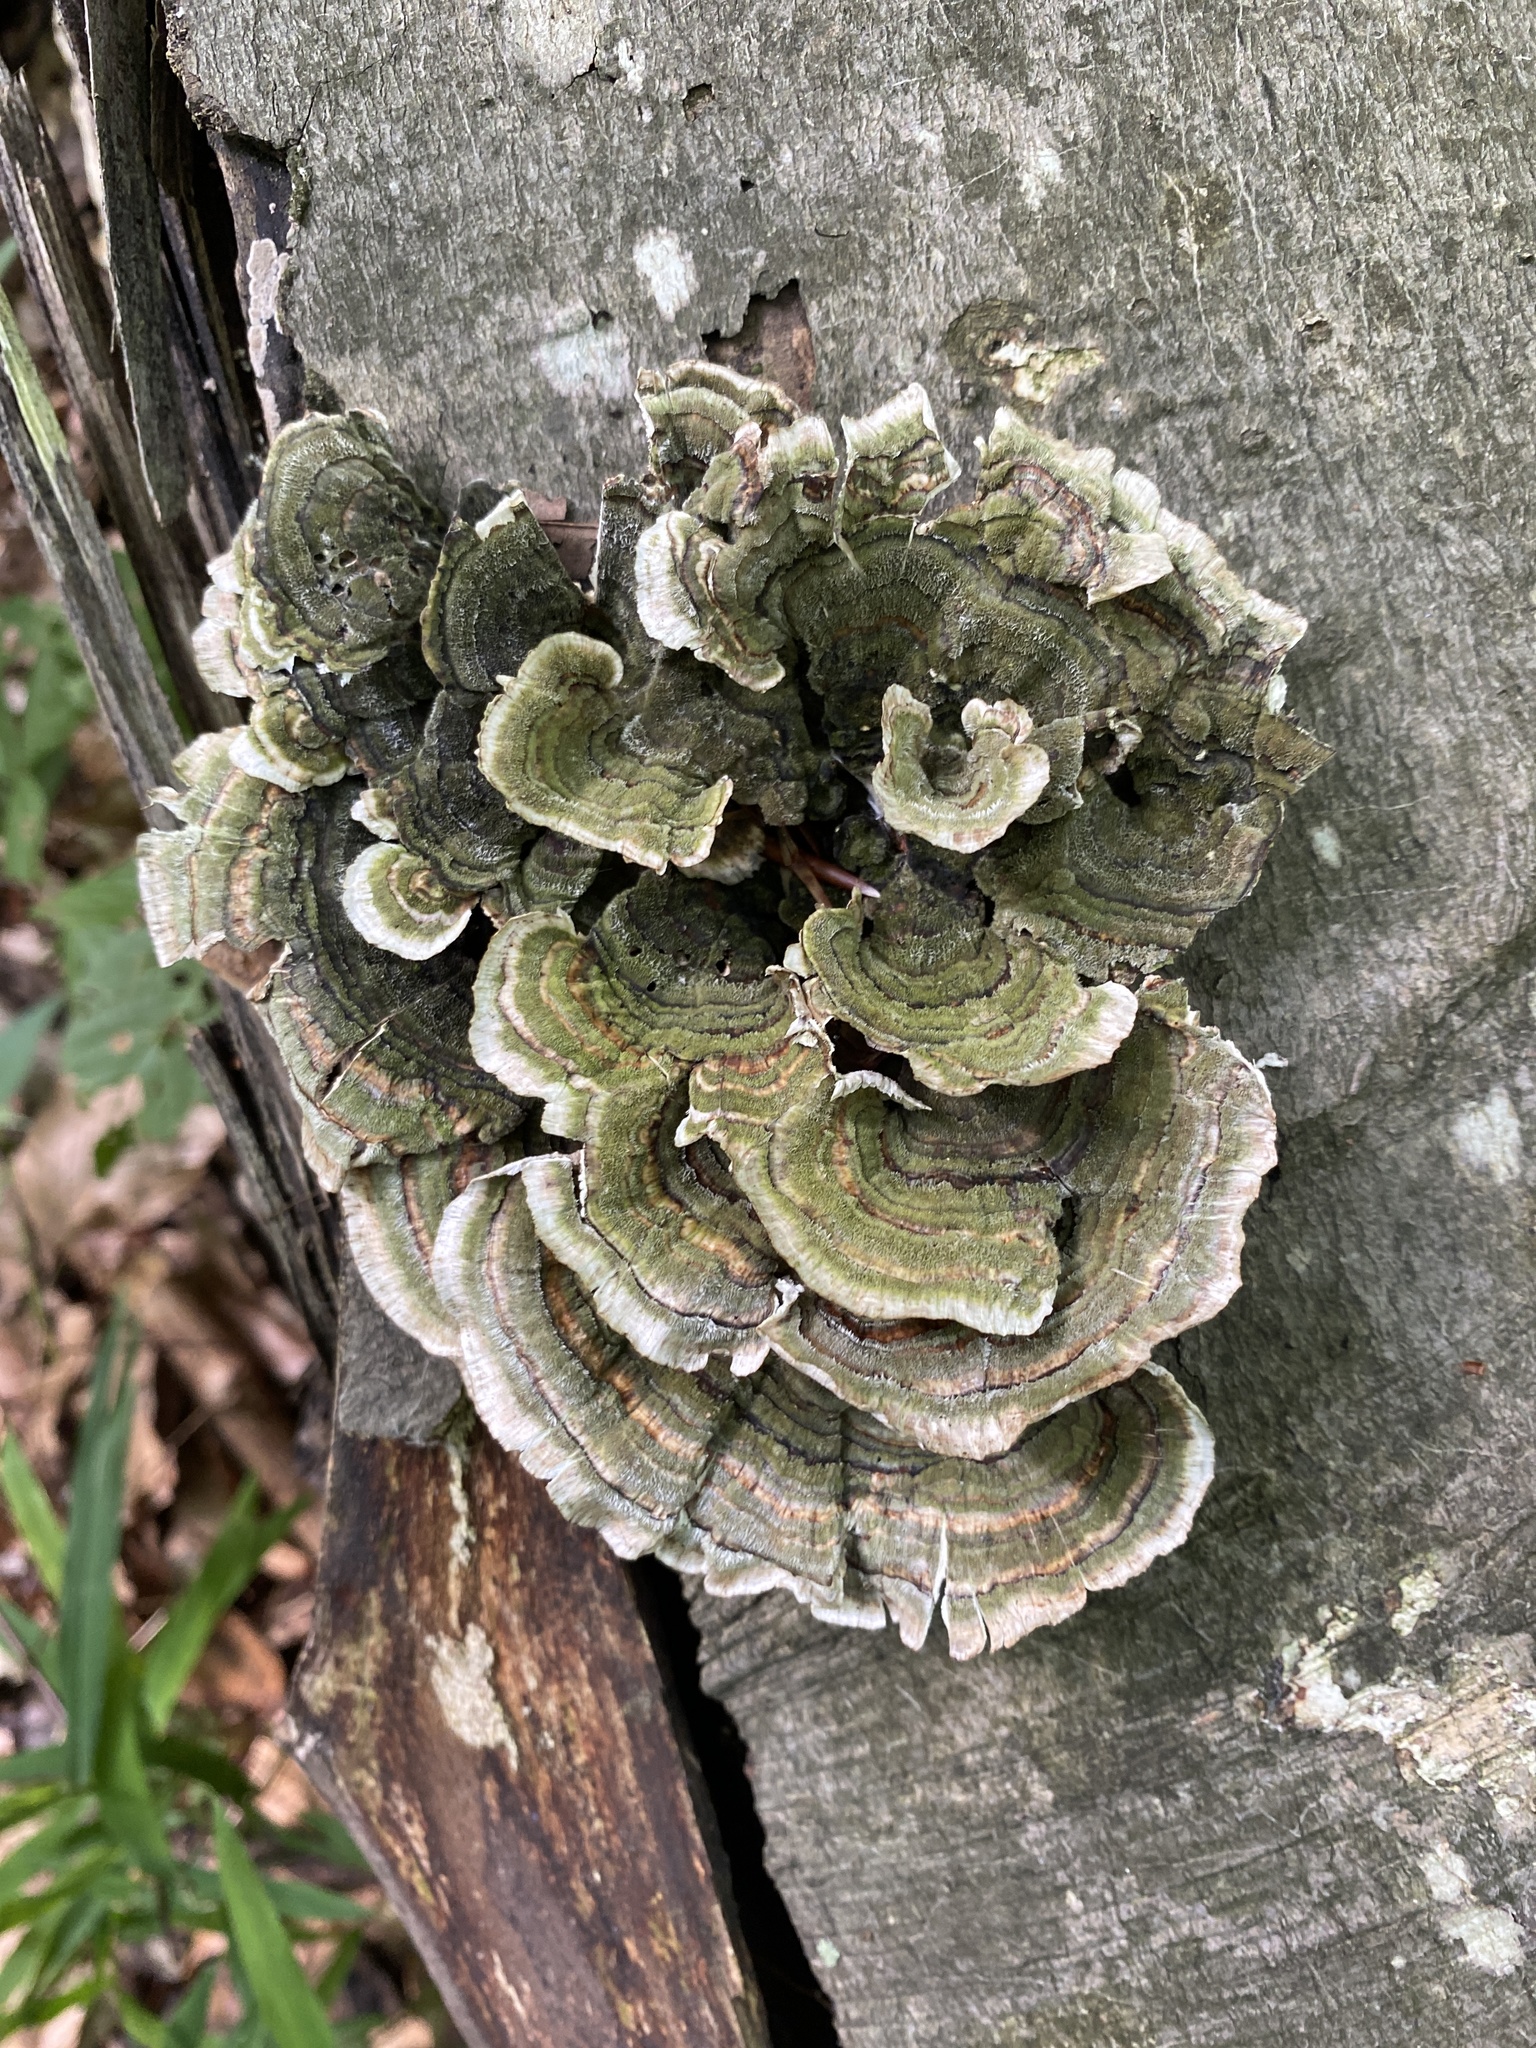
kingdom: Fungi
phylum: Basidiomycota
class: Agaricomycetes
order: Polyporales
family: Polyporaceae
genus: Trametes
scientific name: Trametes versicolor
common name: Turkeytail
